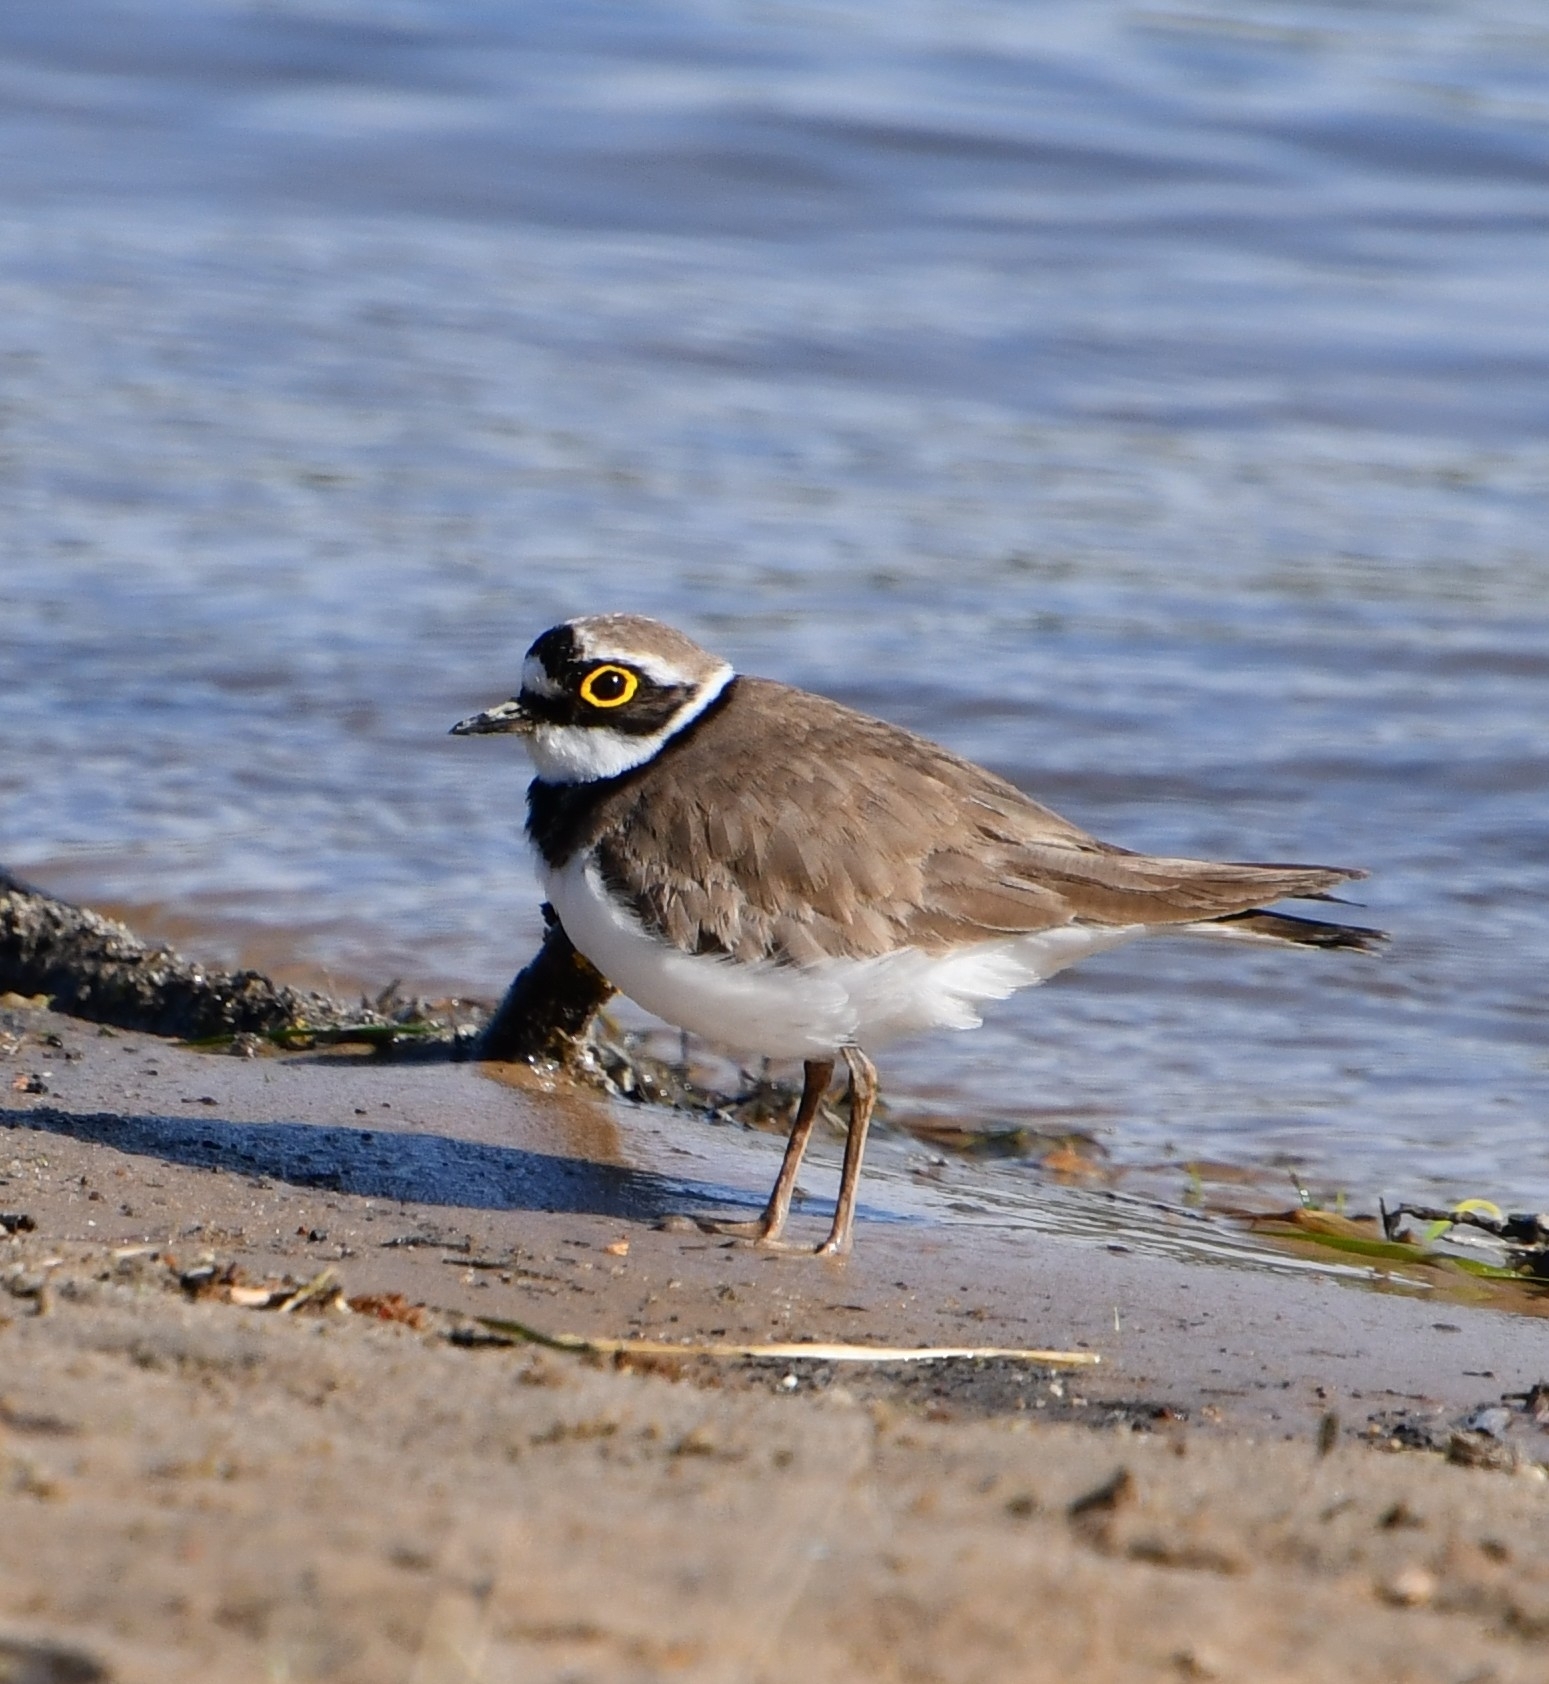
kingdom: Animalia
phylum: Chordata
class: Aves
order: Charadriiformes
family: Charadriidae
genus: Charadrius
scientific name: Charadrius dubius
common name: Little ringed plover
